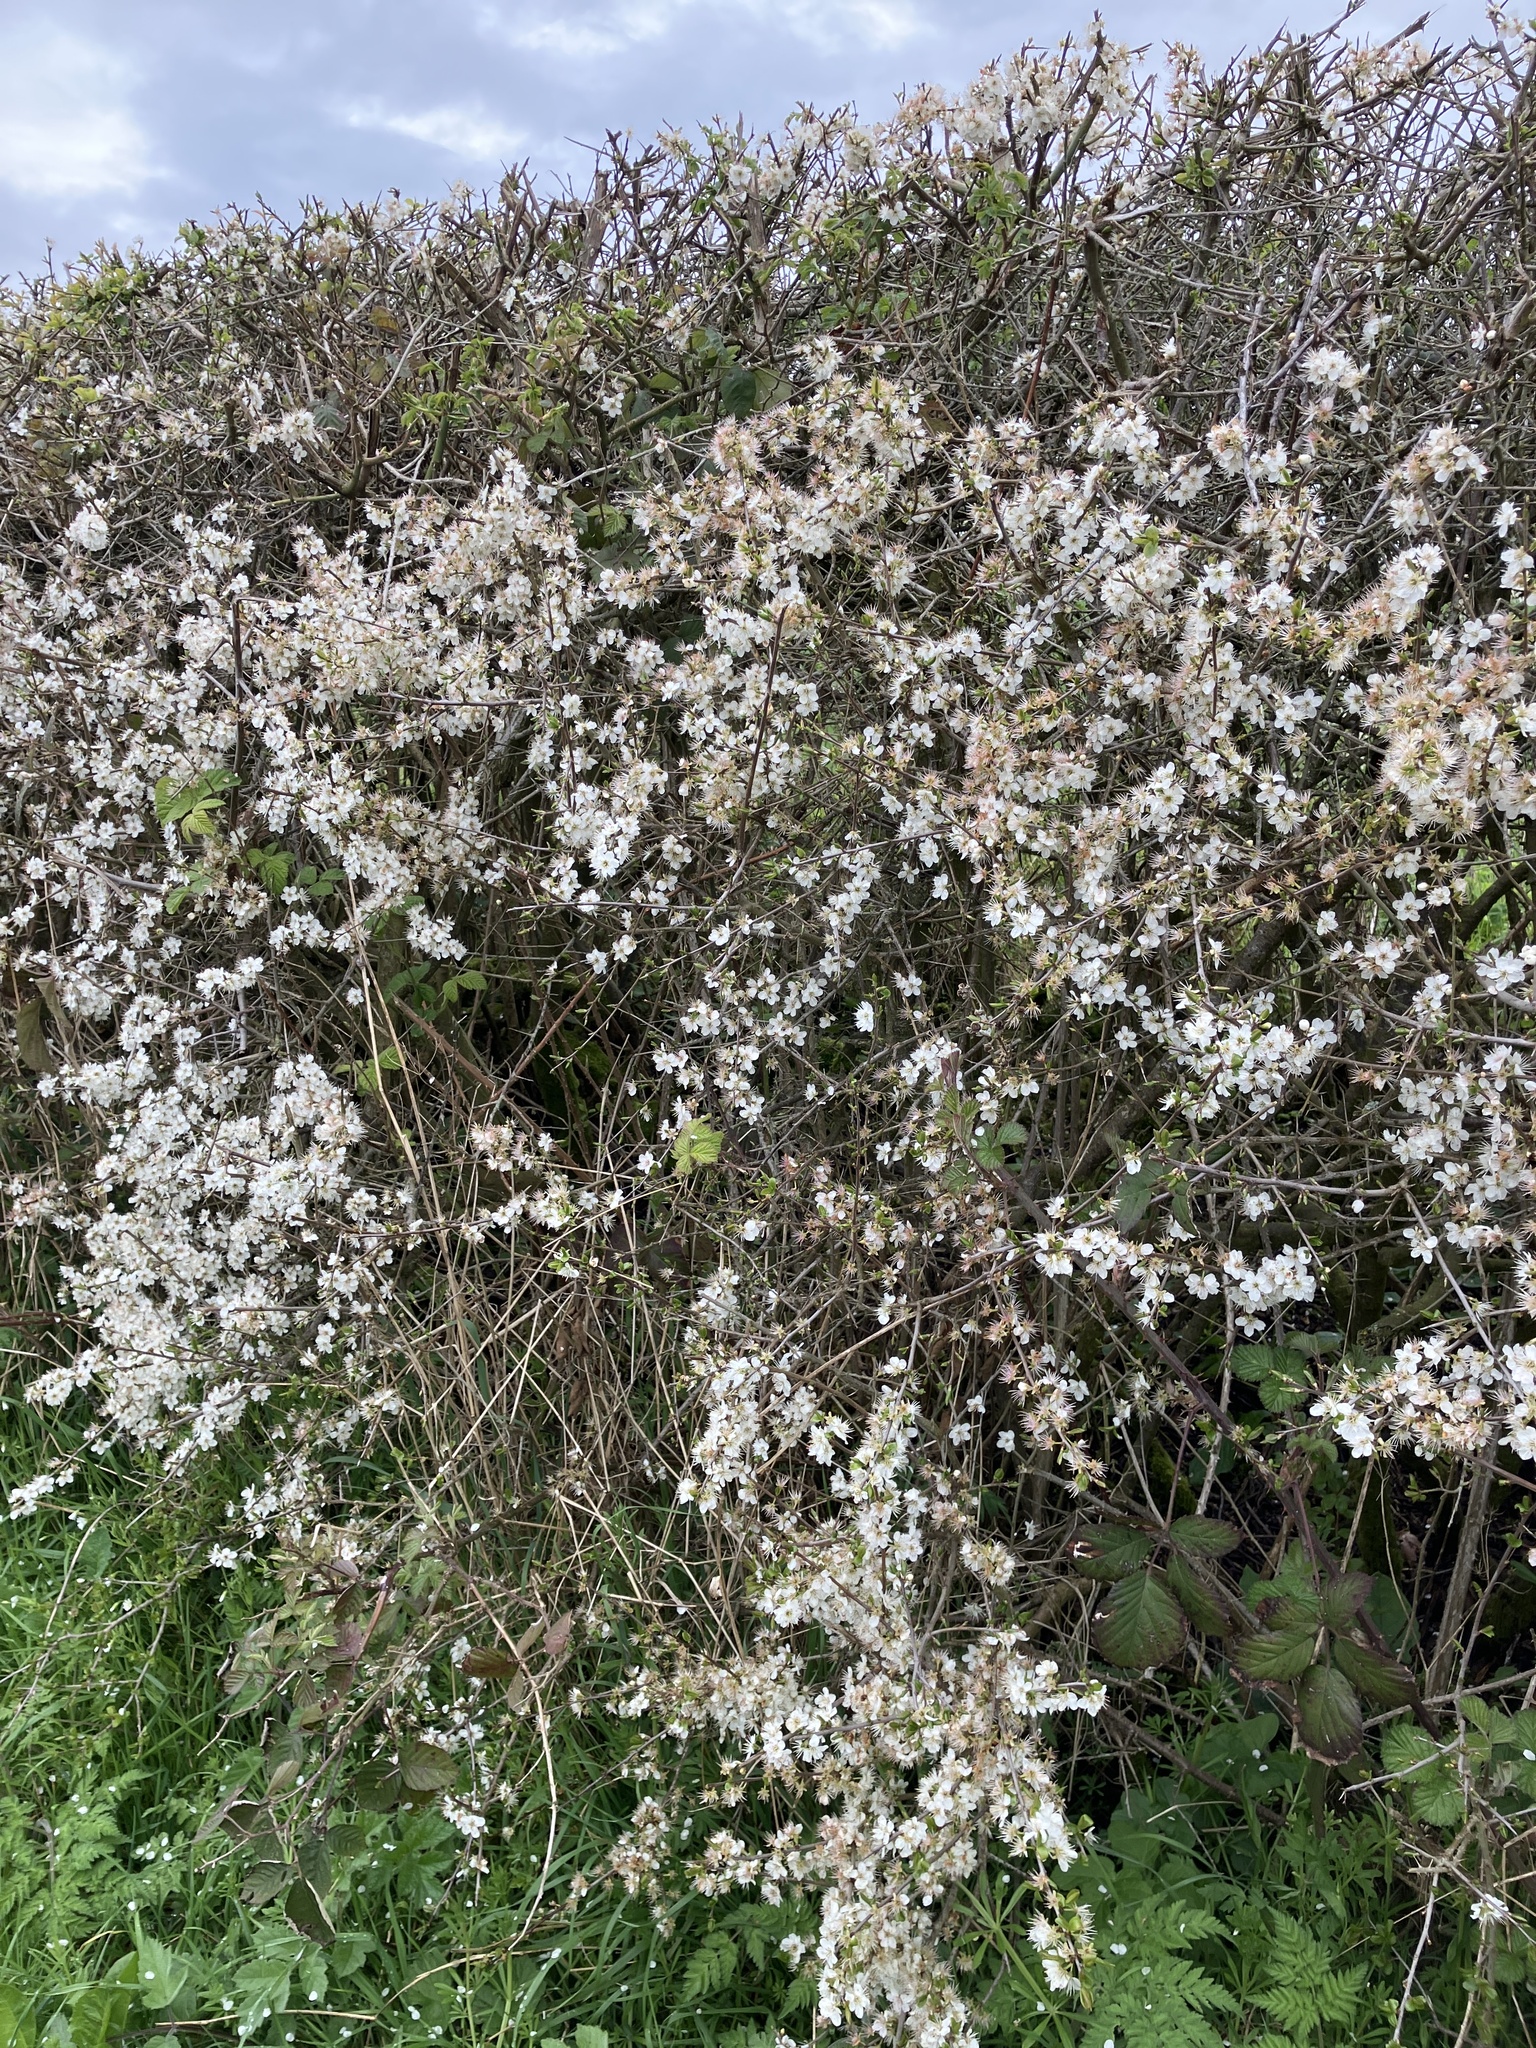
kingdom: Plantae
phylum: Tracheophyta
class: Magnoliopsida
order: Rosales
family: Rosaceae
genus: Prunus
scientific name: Prunus spinosa
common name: Blackthorn
